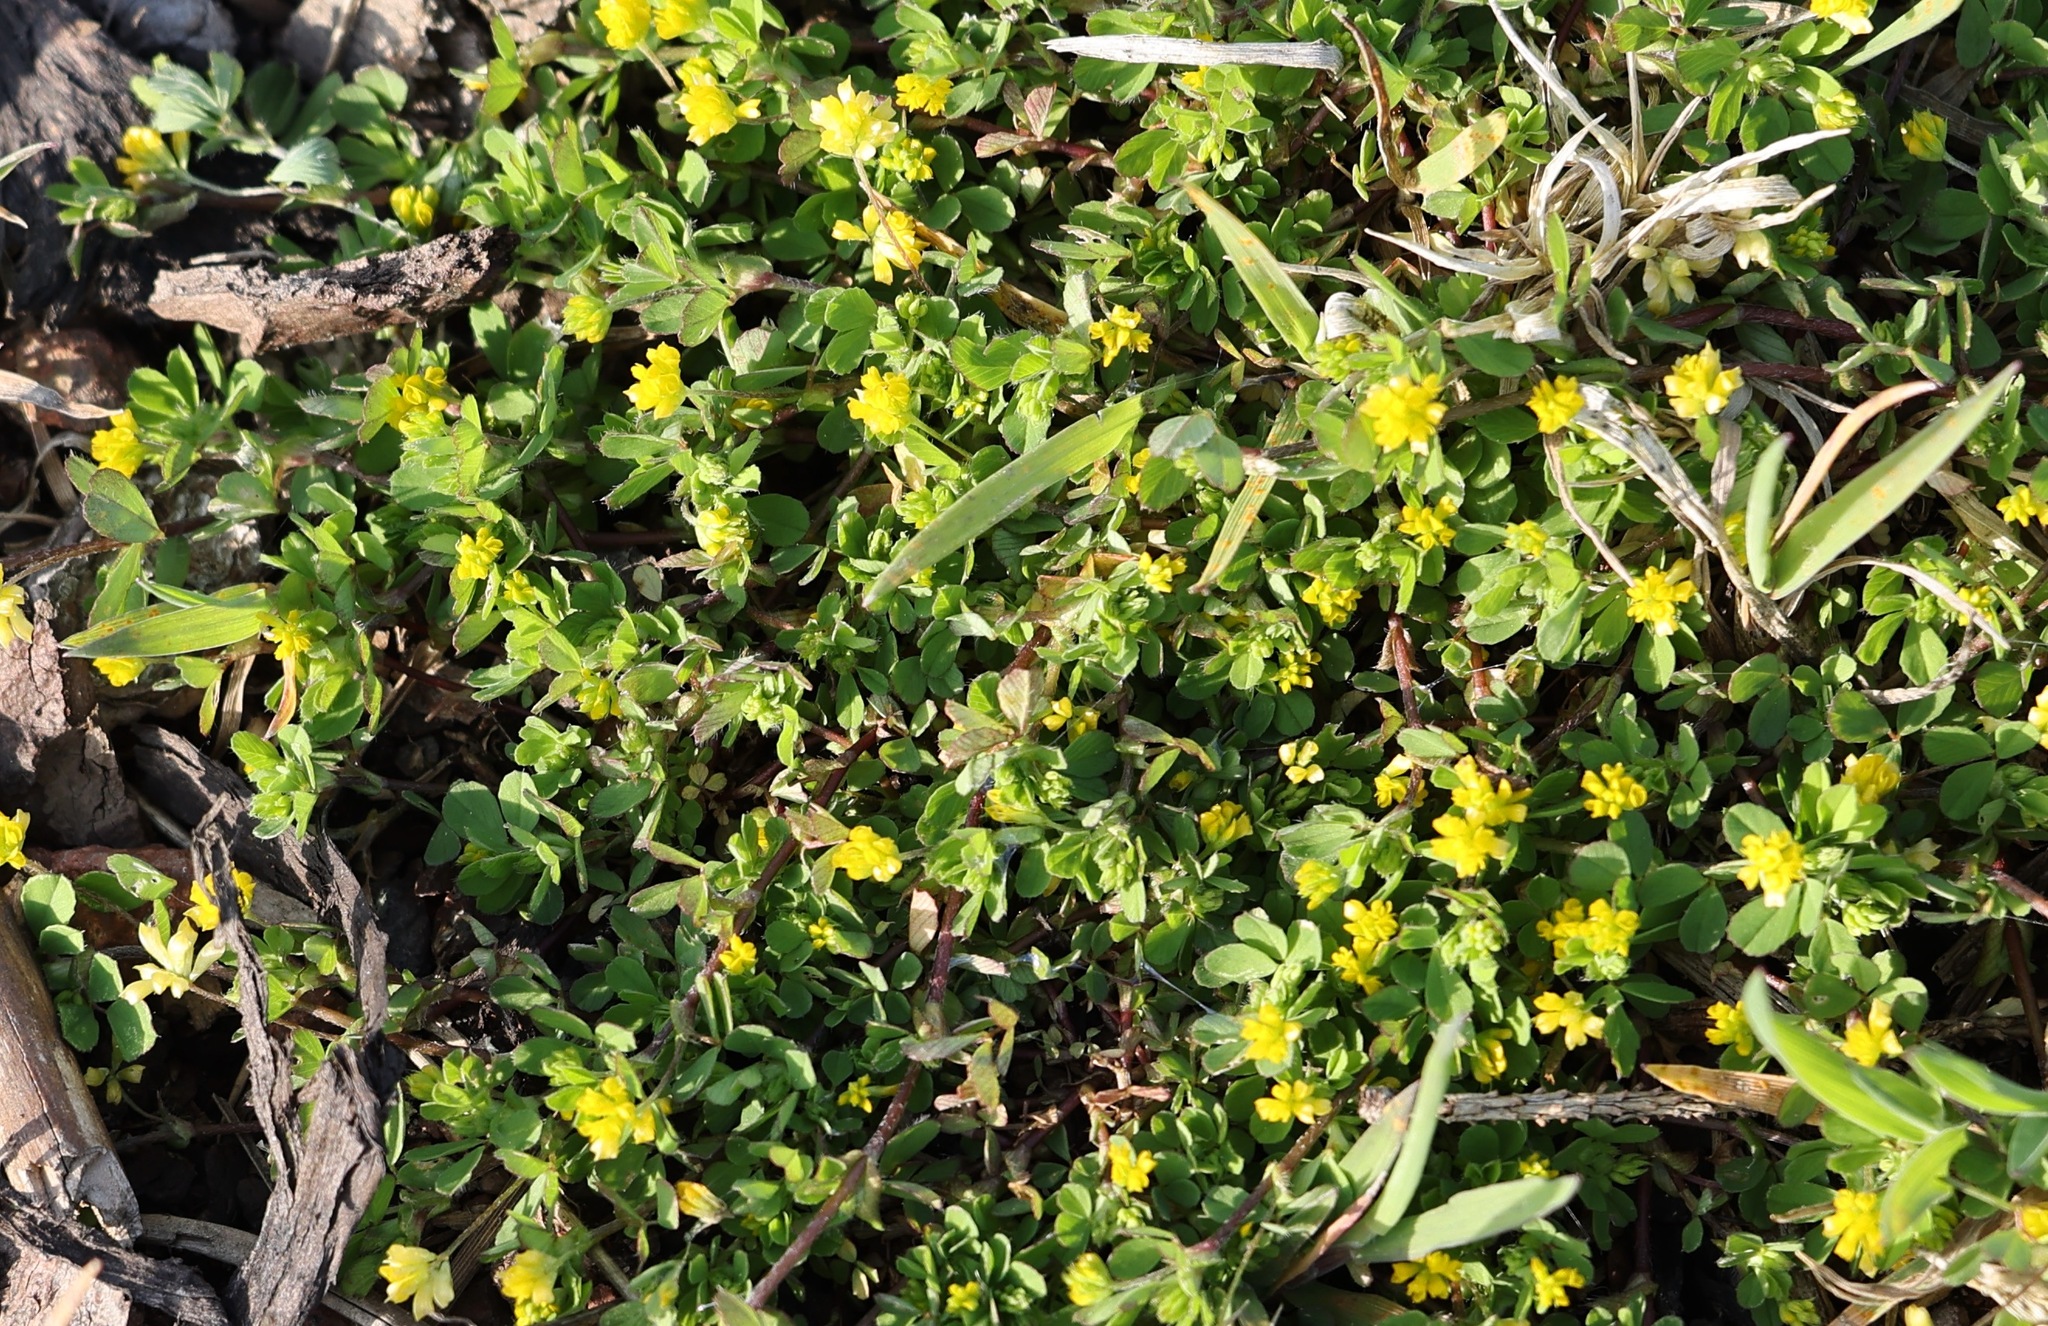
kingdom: Plantae
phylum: Tracheophyta
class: Magnoliopsida
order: Fabales
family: Fabaceae
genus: Trifolium
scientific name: Trifolium dubium
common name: Suckling clover
